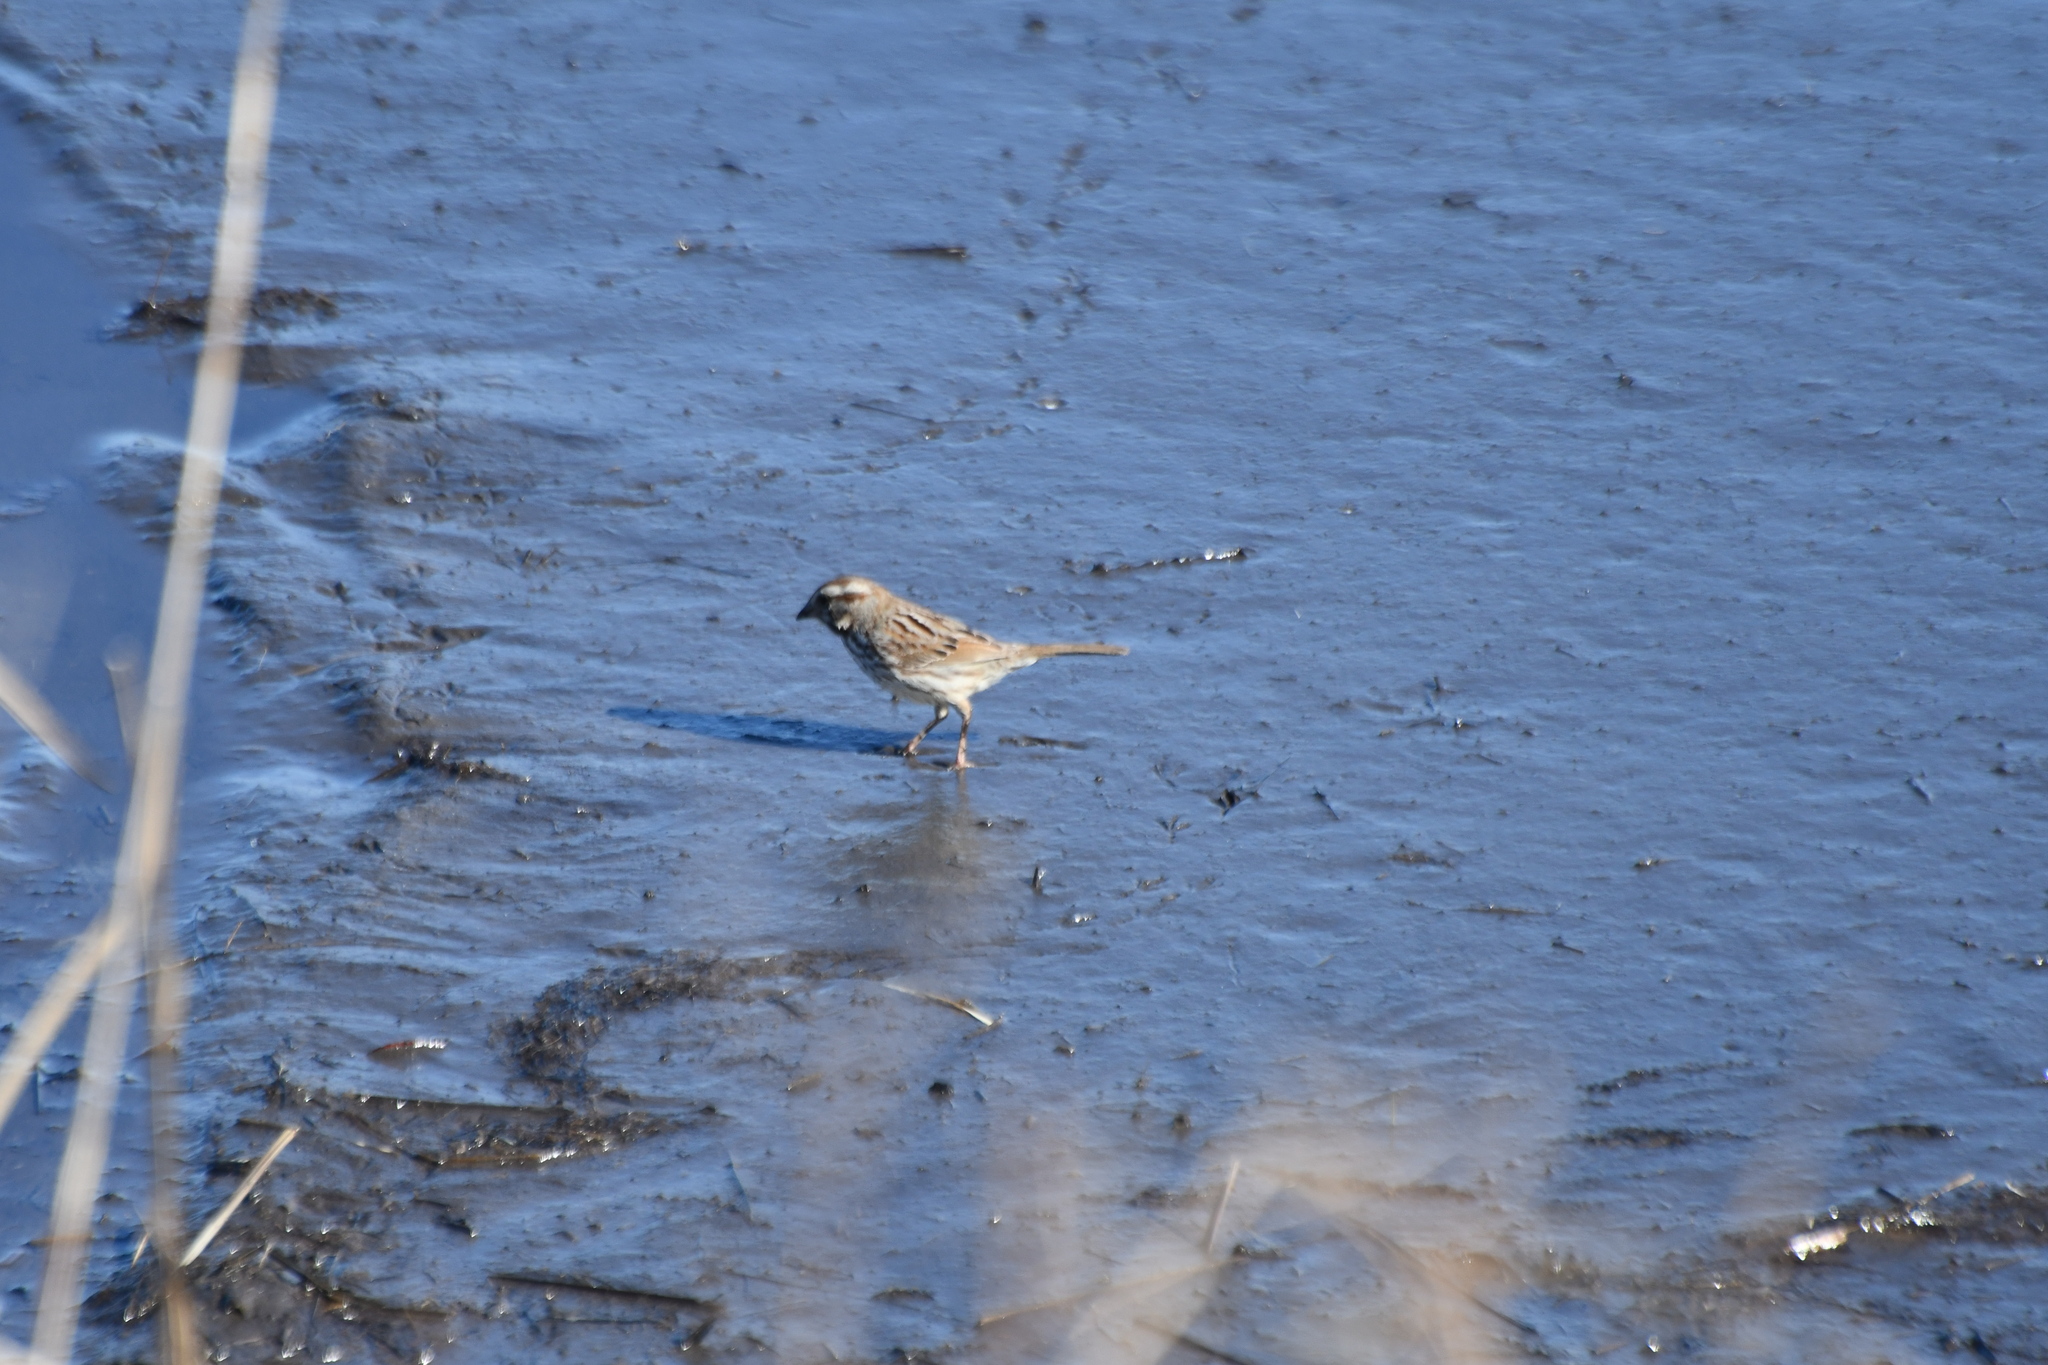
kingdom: Animalia
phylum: Chordata
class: Aves
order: Passeriformes
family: Passerellidae
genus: Melospiza
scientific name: Melospiza melodia
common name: Song sparrow
